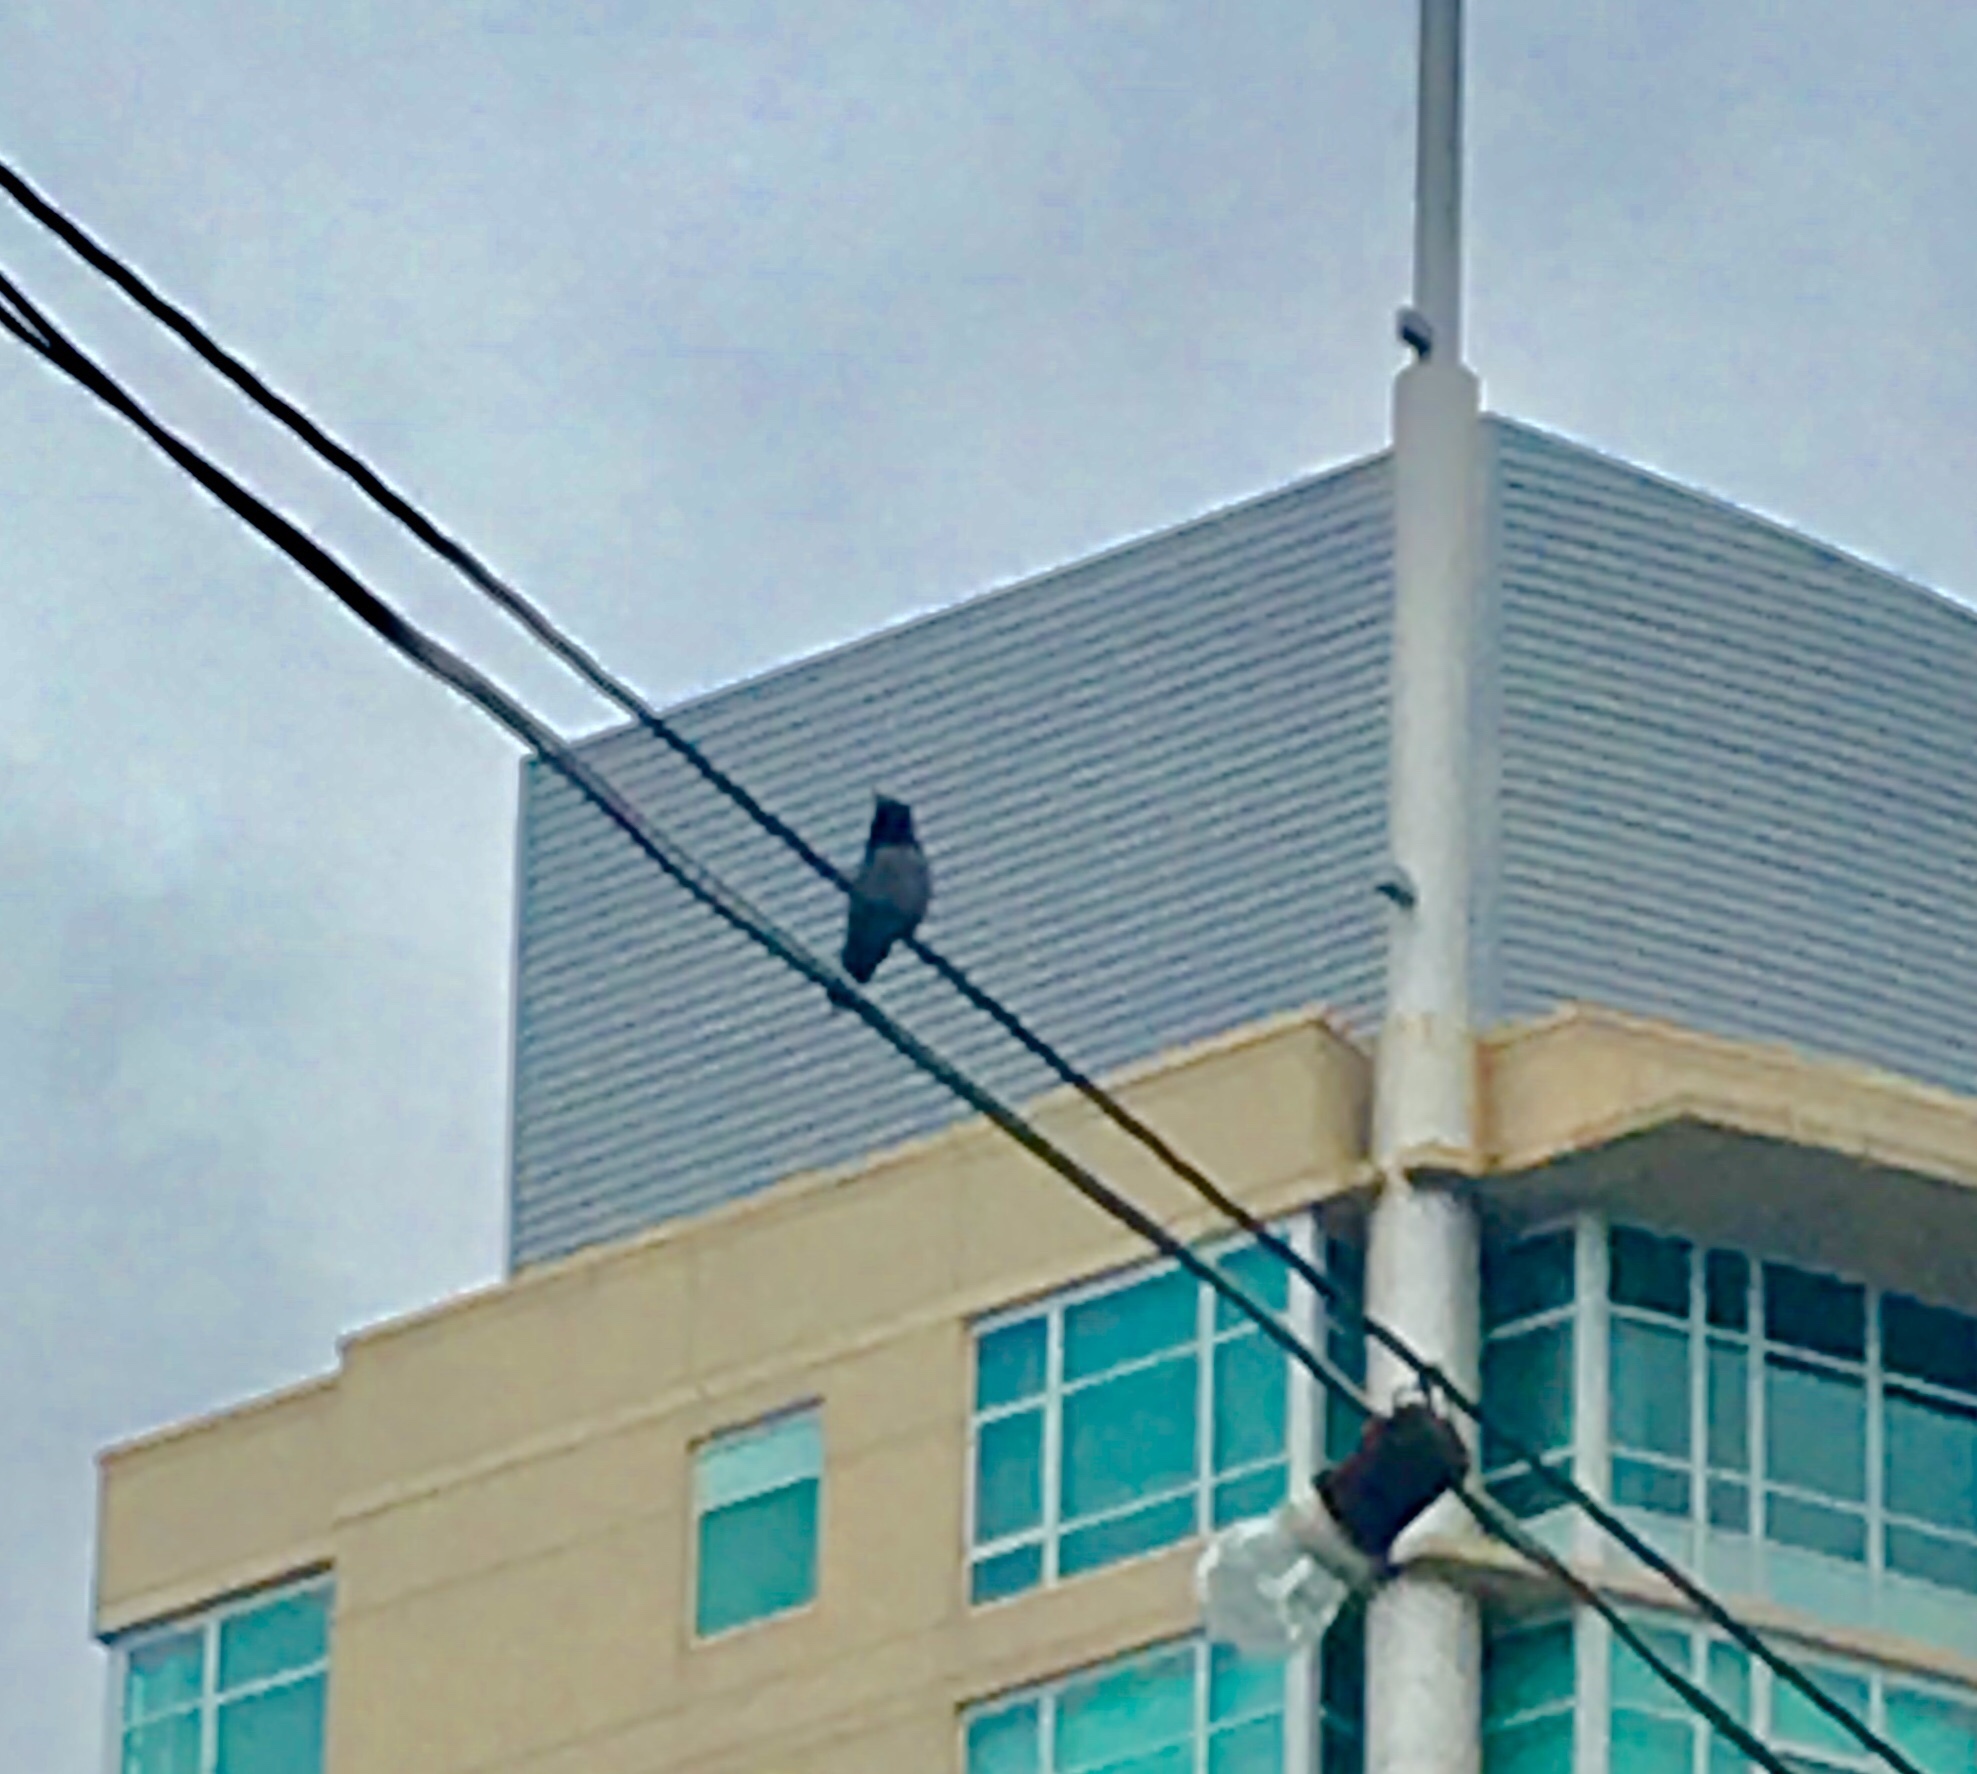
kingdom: Animalia
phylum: Chordata
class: Aves
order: Apodiformes
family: Trochilidae
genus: Calypte
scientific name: Calypte anna
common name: Anna's hummingbird
